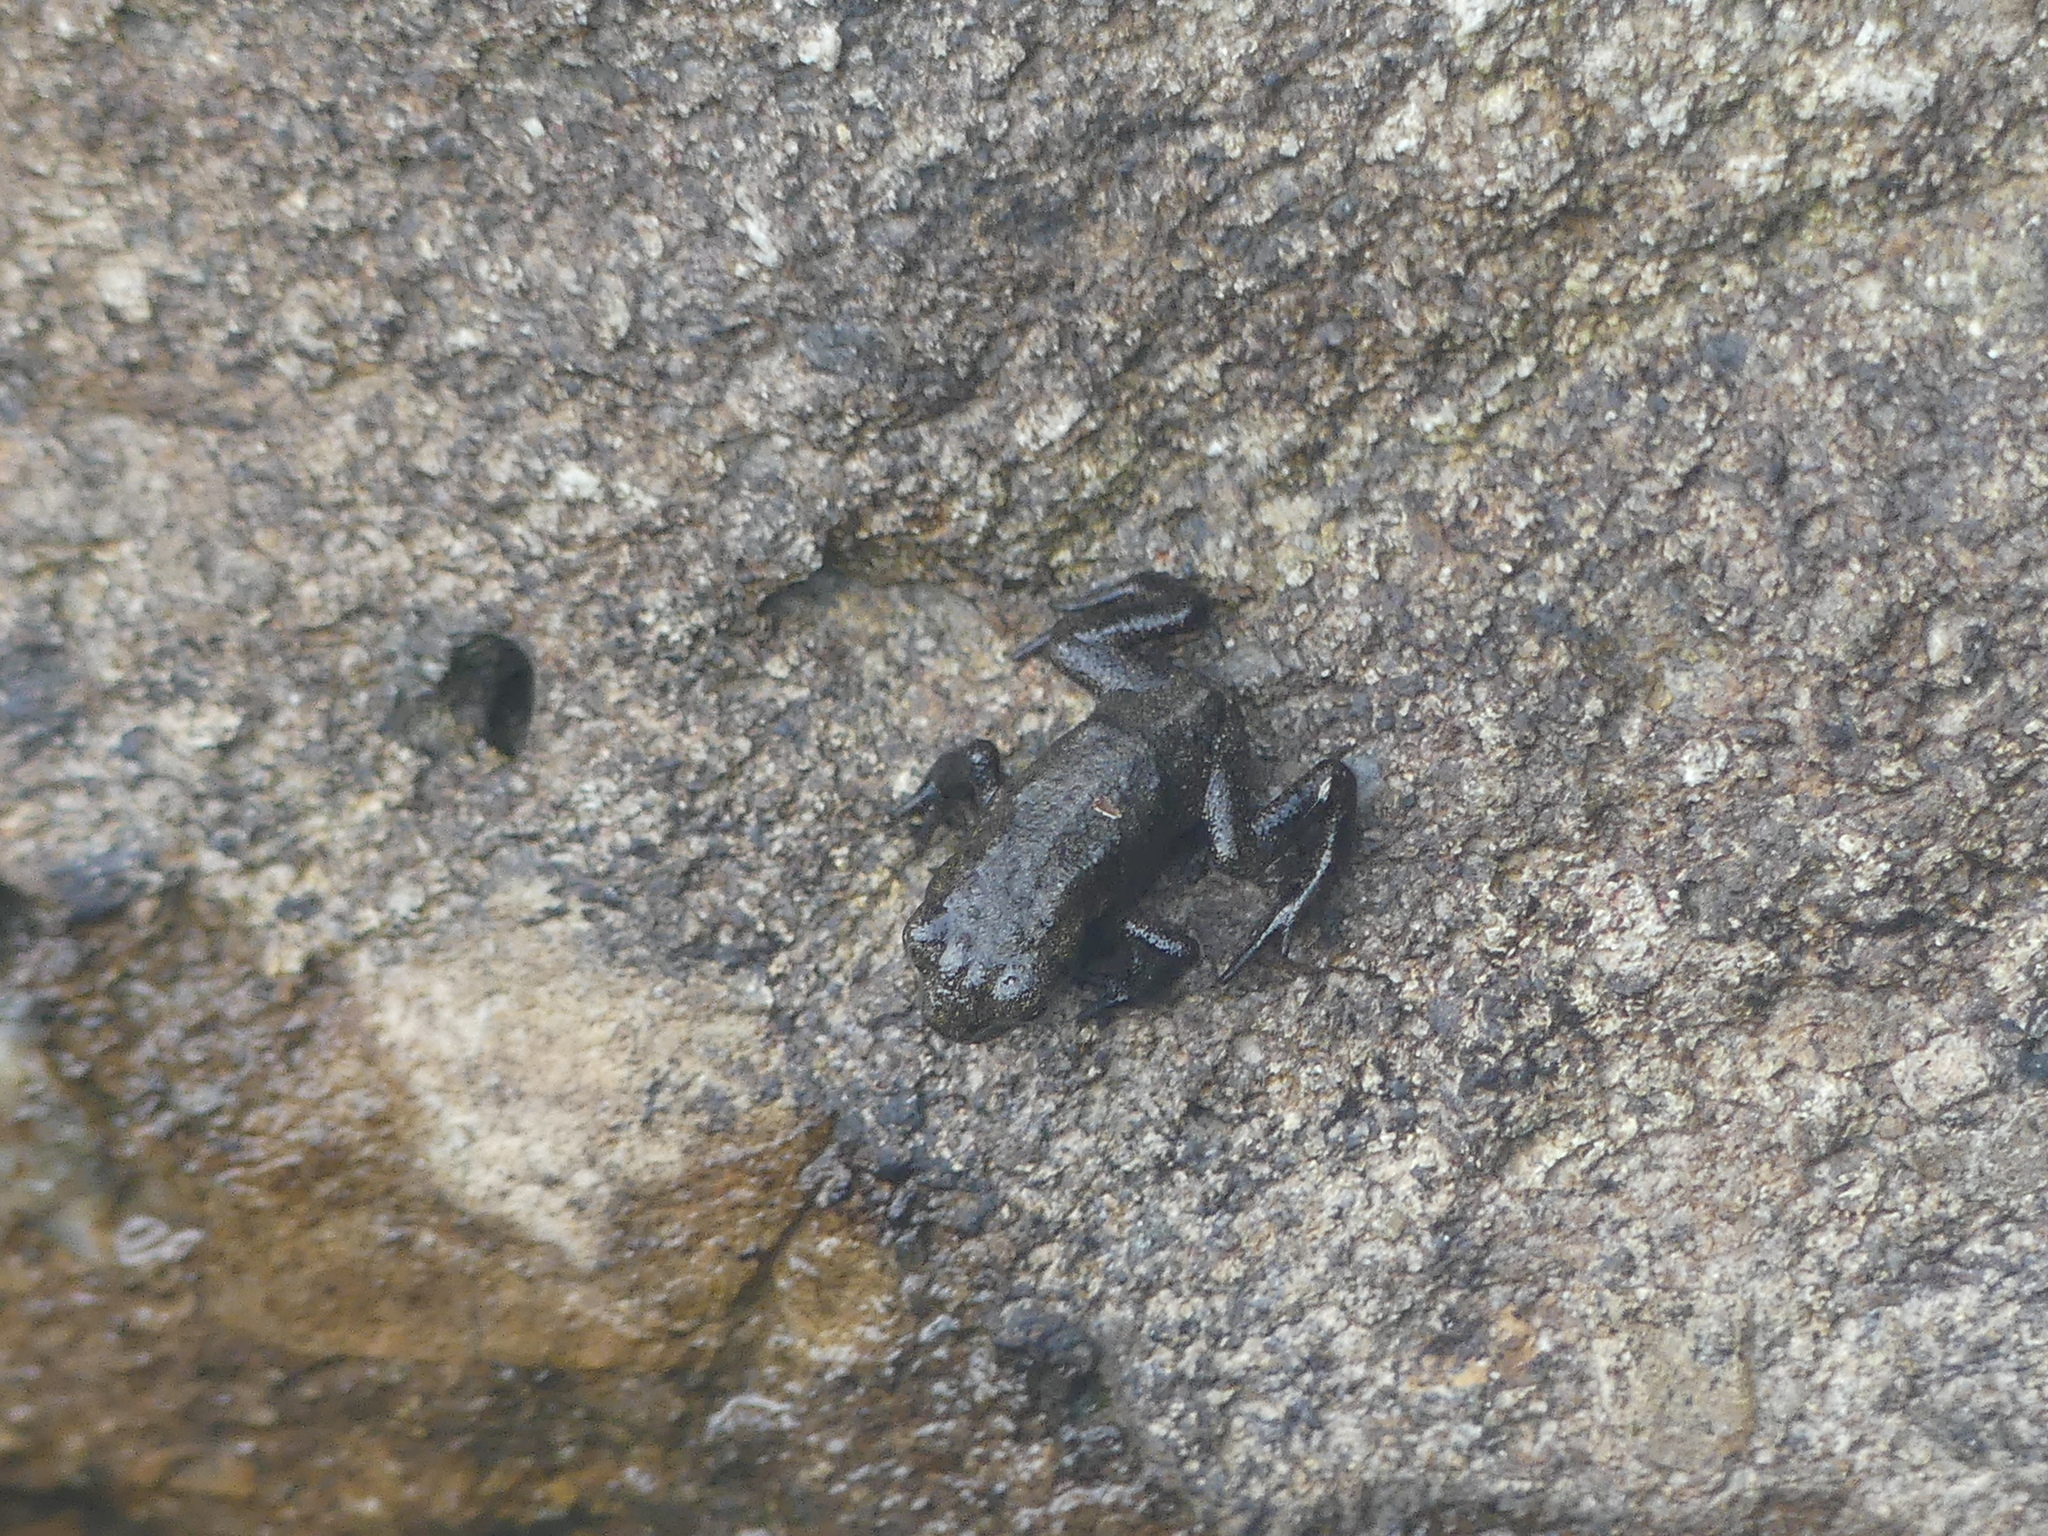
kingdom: Animalia
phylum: Chordata
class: Amphibia
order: Anura
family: Bufonidae
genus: Bufo
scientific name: Bufo spinosus
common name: Western common toad
